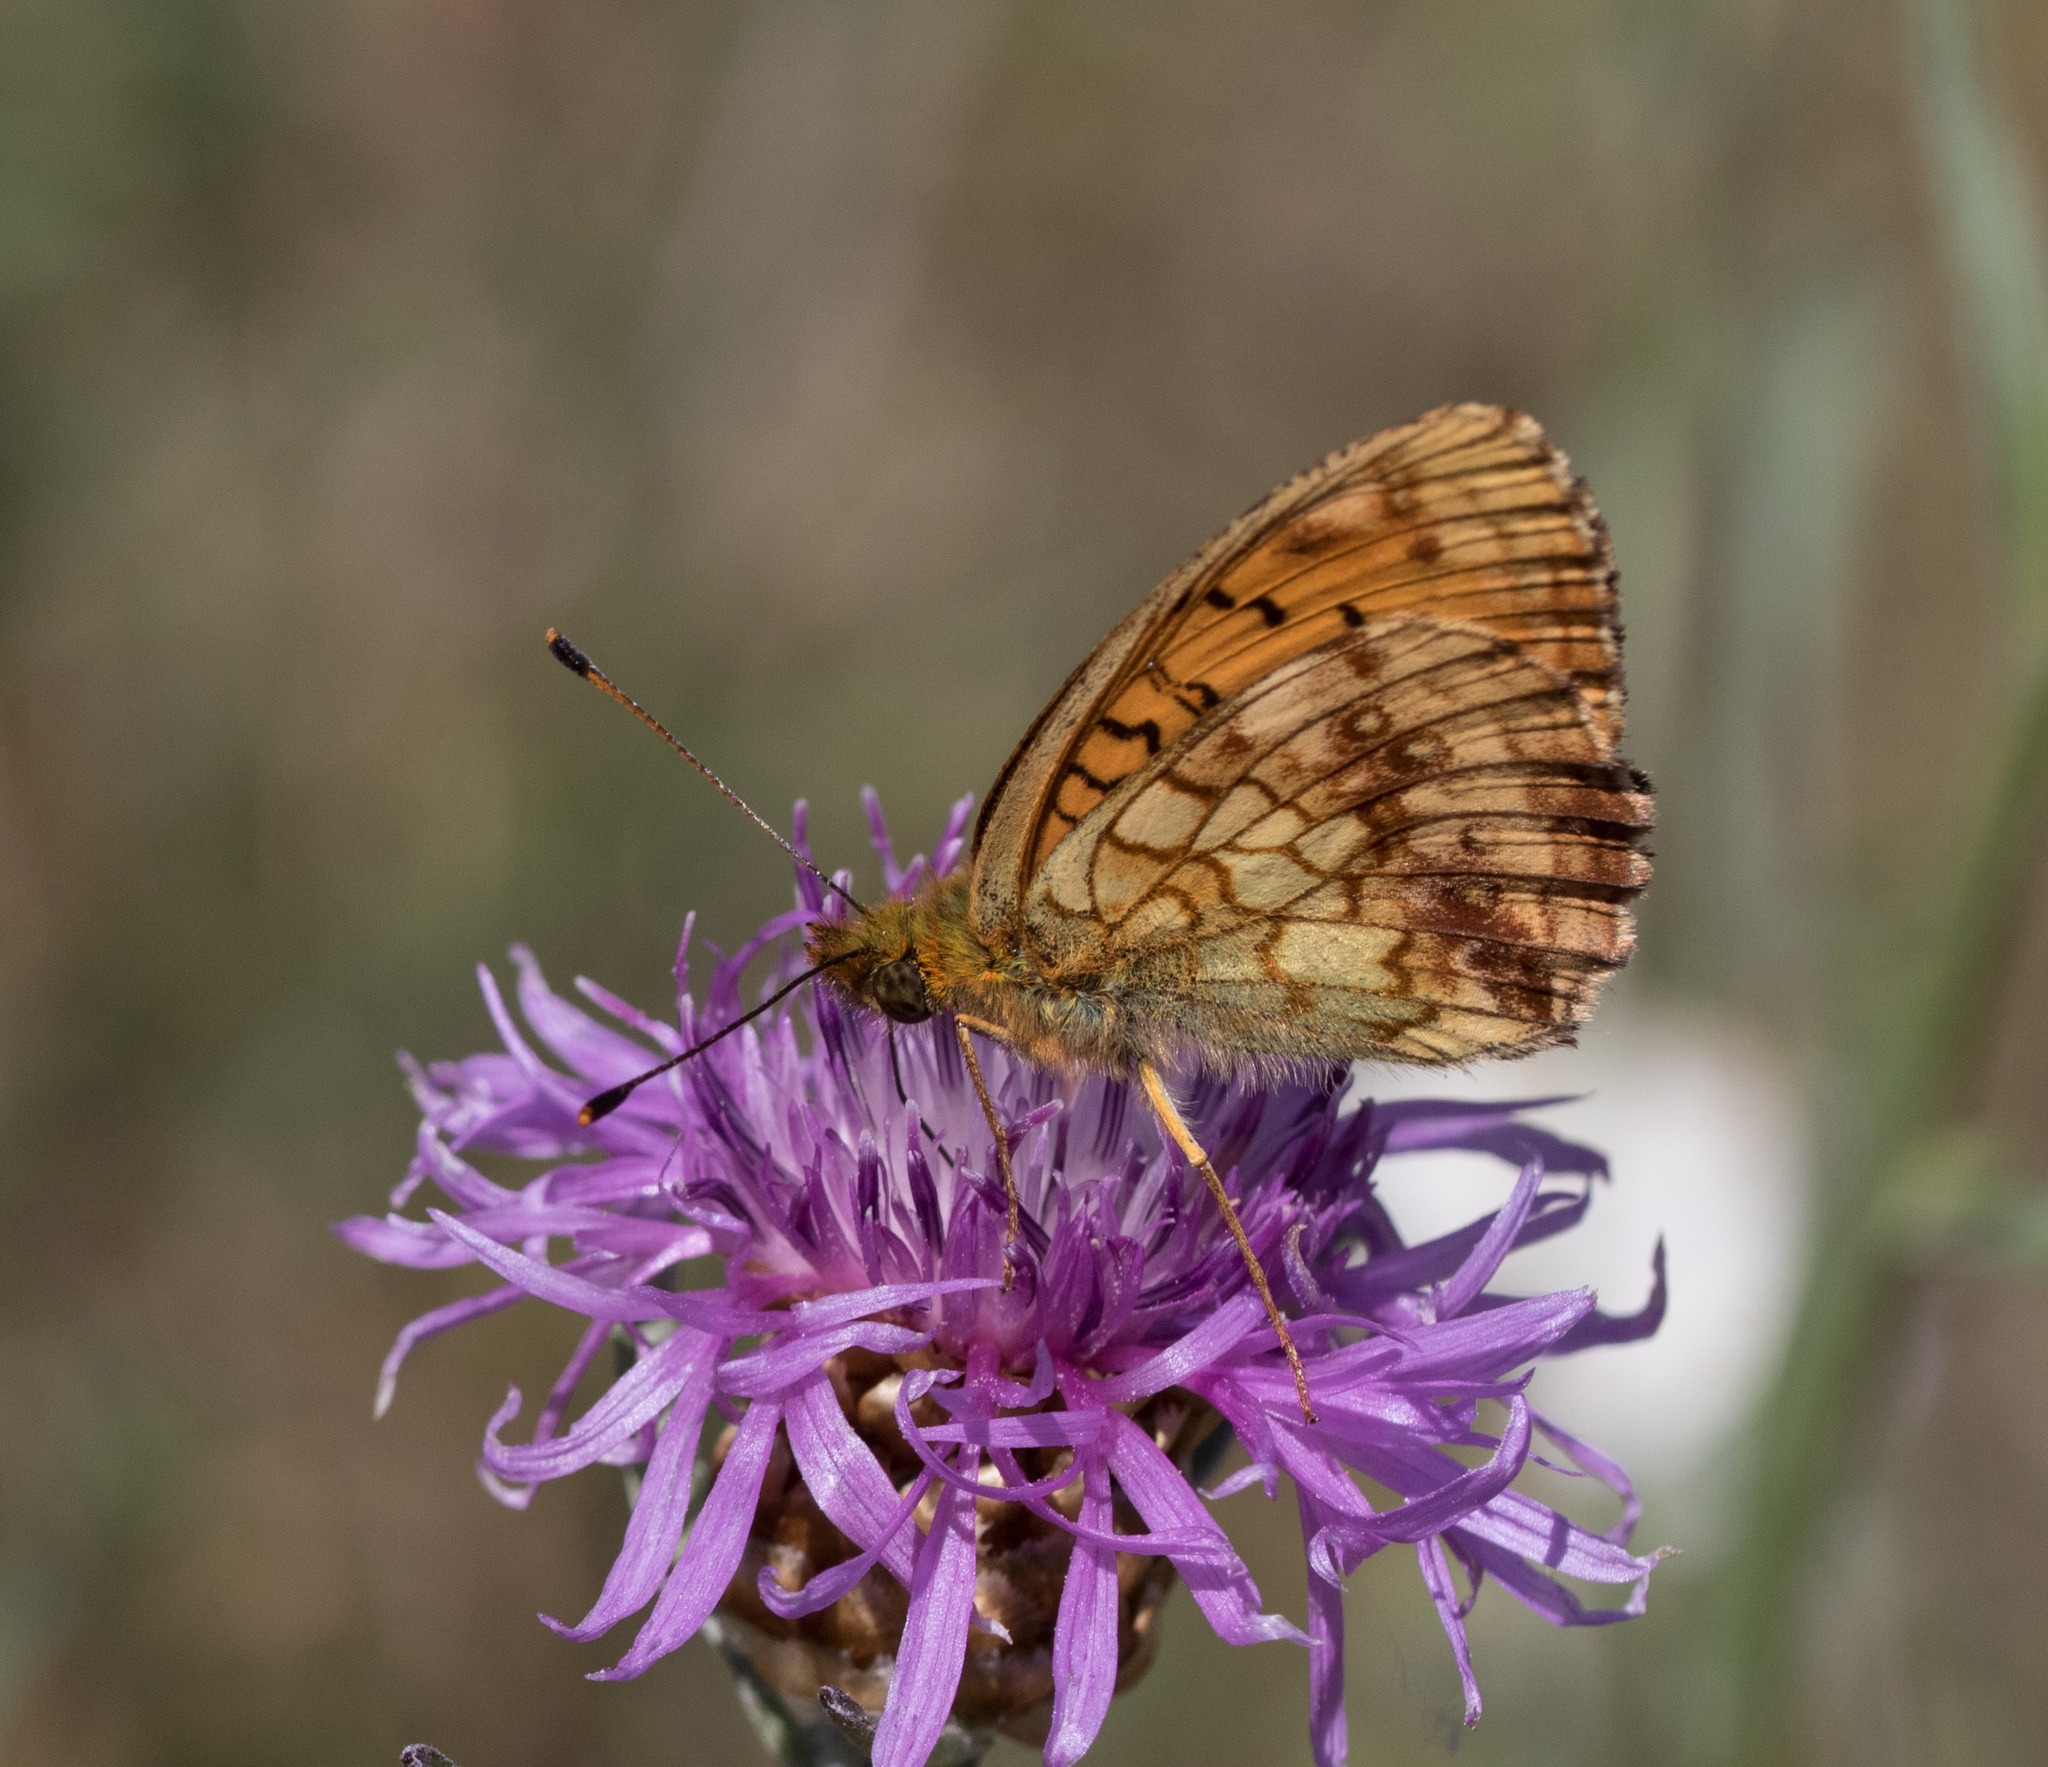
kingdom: Animalia
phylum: Arthropoda
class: Insecta
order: Lepidoptera
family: Nymphalidae
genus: Brenthis
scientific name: Brenthis ino
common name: Lesser marbled fritillary
